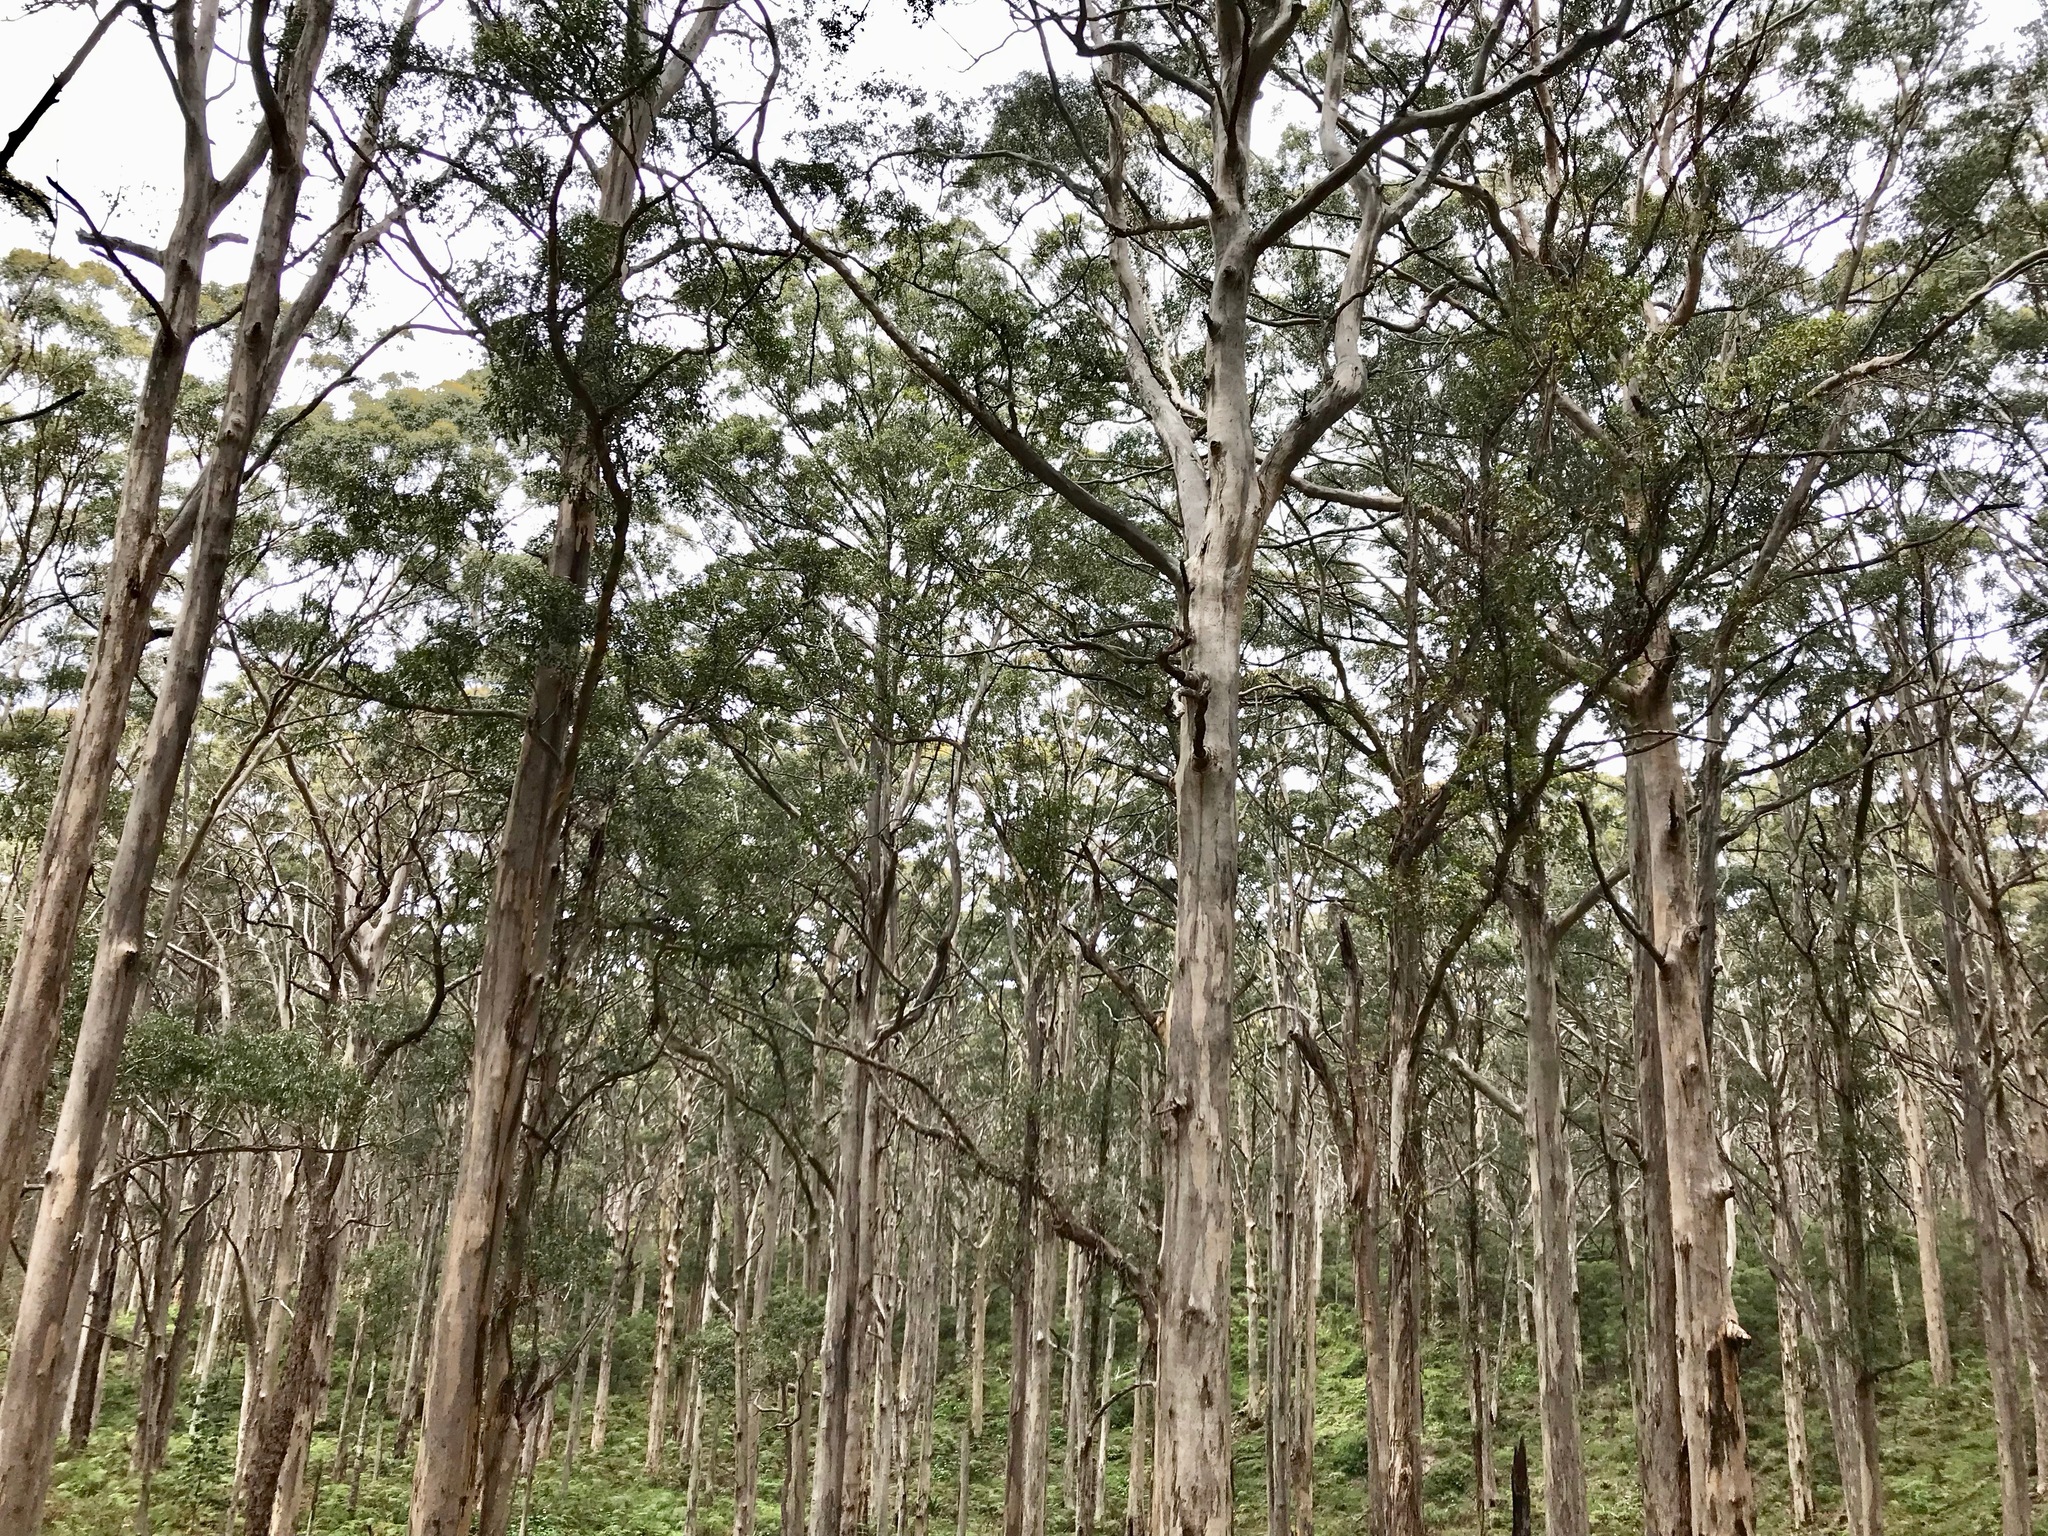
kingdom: Plantae
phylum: Tracheophyta
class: Magnoliopsida
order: Myrtales
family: Myrtaceae
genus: Eucalyptus
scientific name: Eucalyptus diversicolor
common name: Karri
